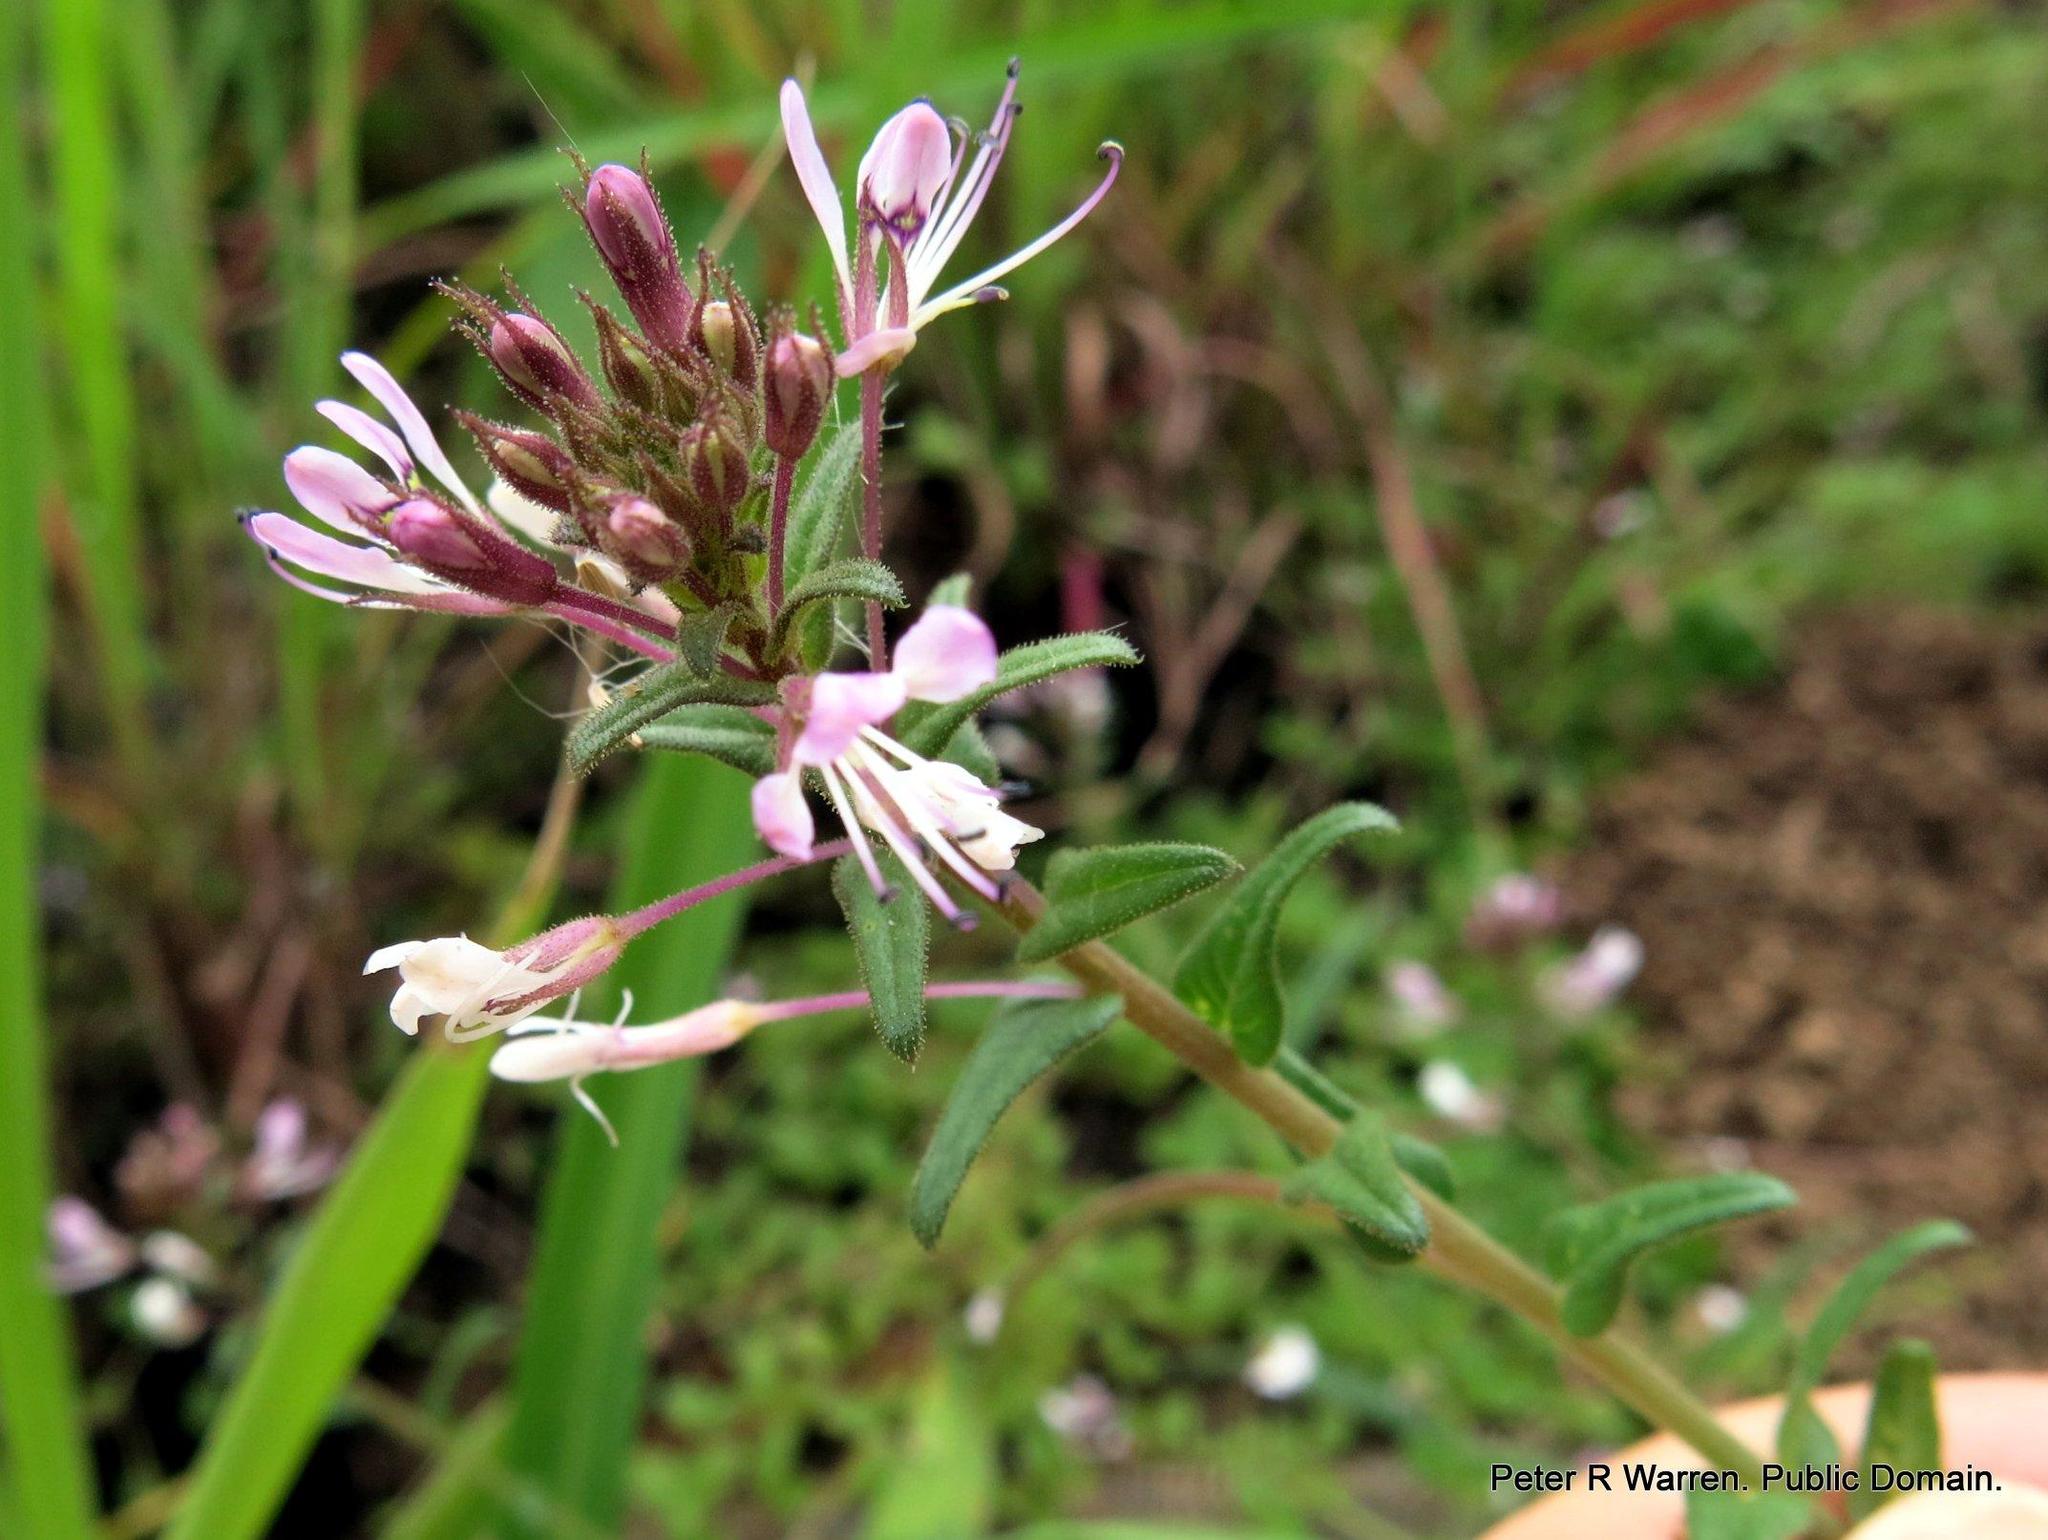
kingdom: Plantae
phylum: Tracheophyta
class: Magnoliopsida
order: Brassicales
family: Cleomaceae
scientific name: Cleomaceae
